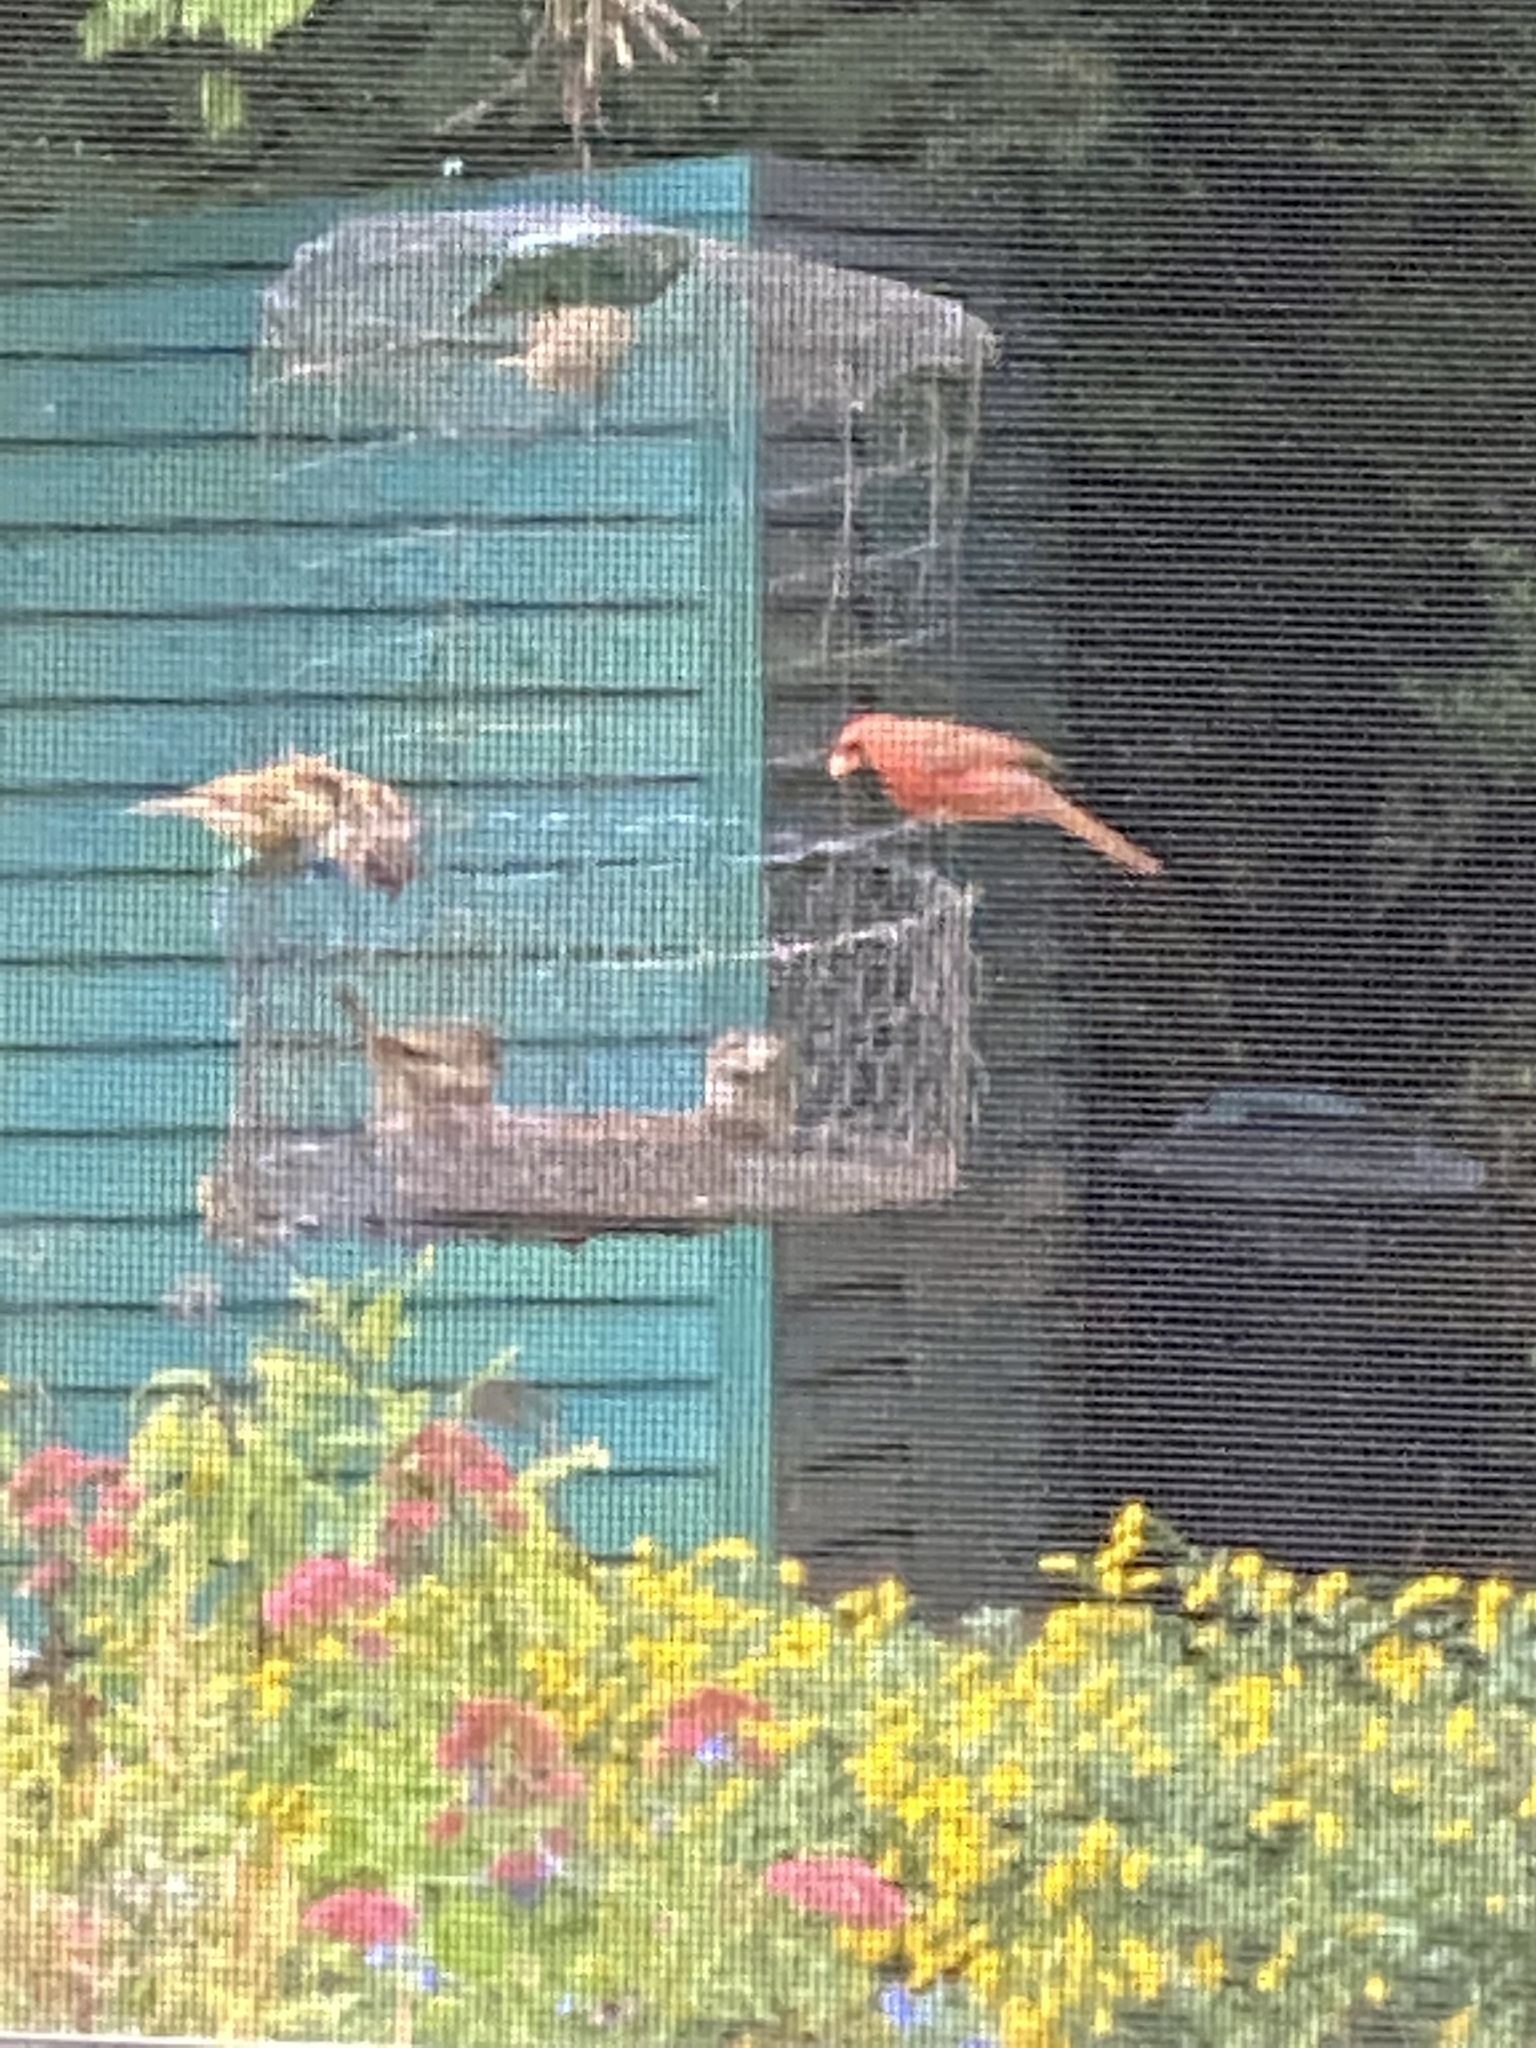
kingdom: Animalia
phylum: Chordata
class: Aves
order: Passeriformes
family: Cardinalidae
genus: Cardinalis
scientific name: Cardinalis cardinalis
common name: Northern cardinal
